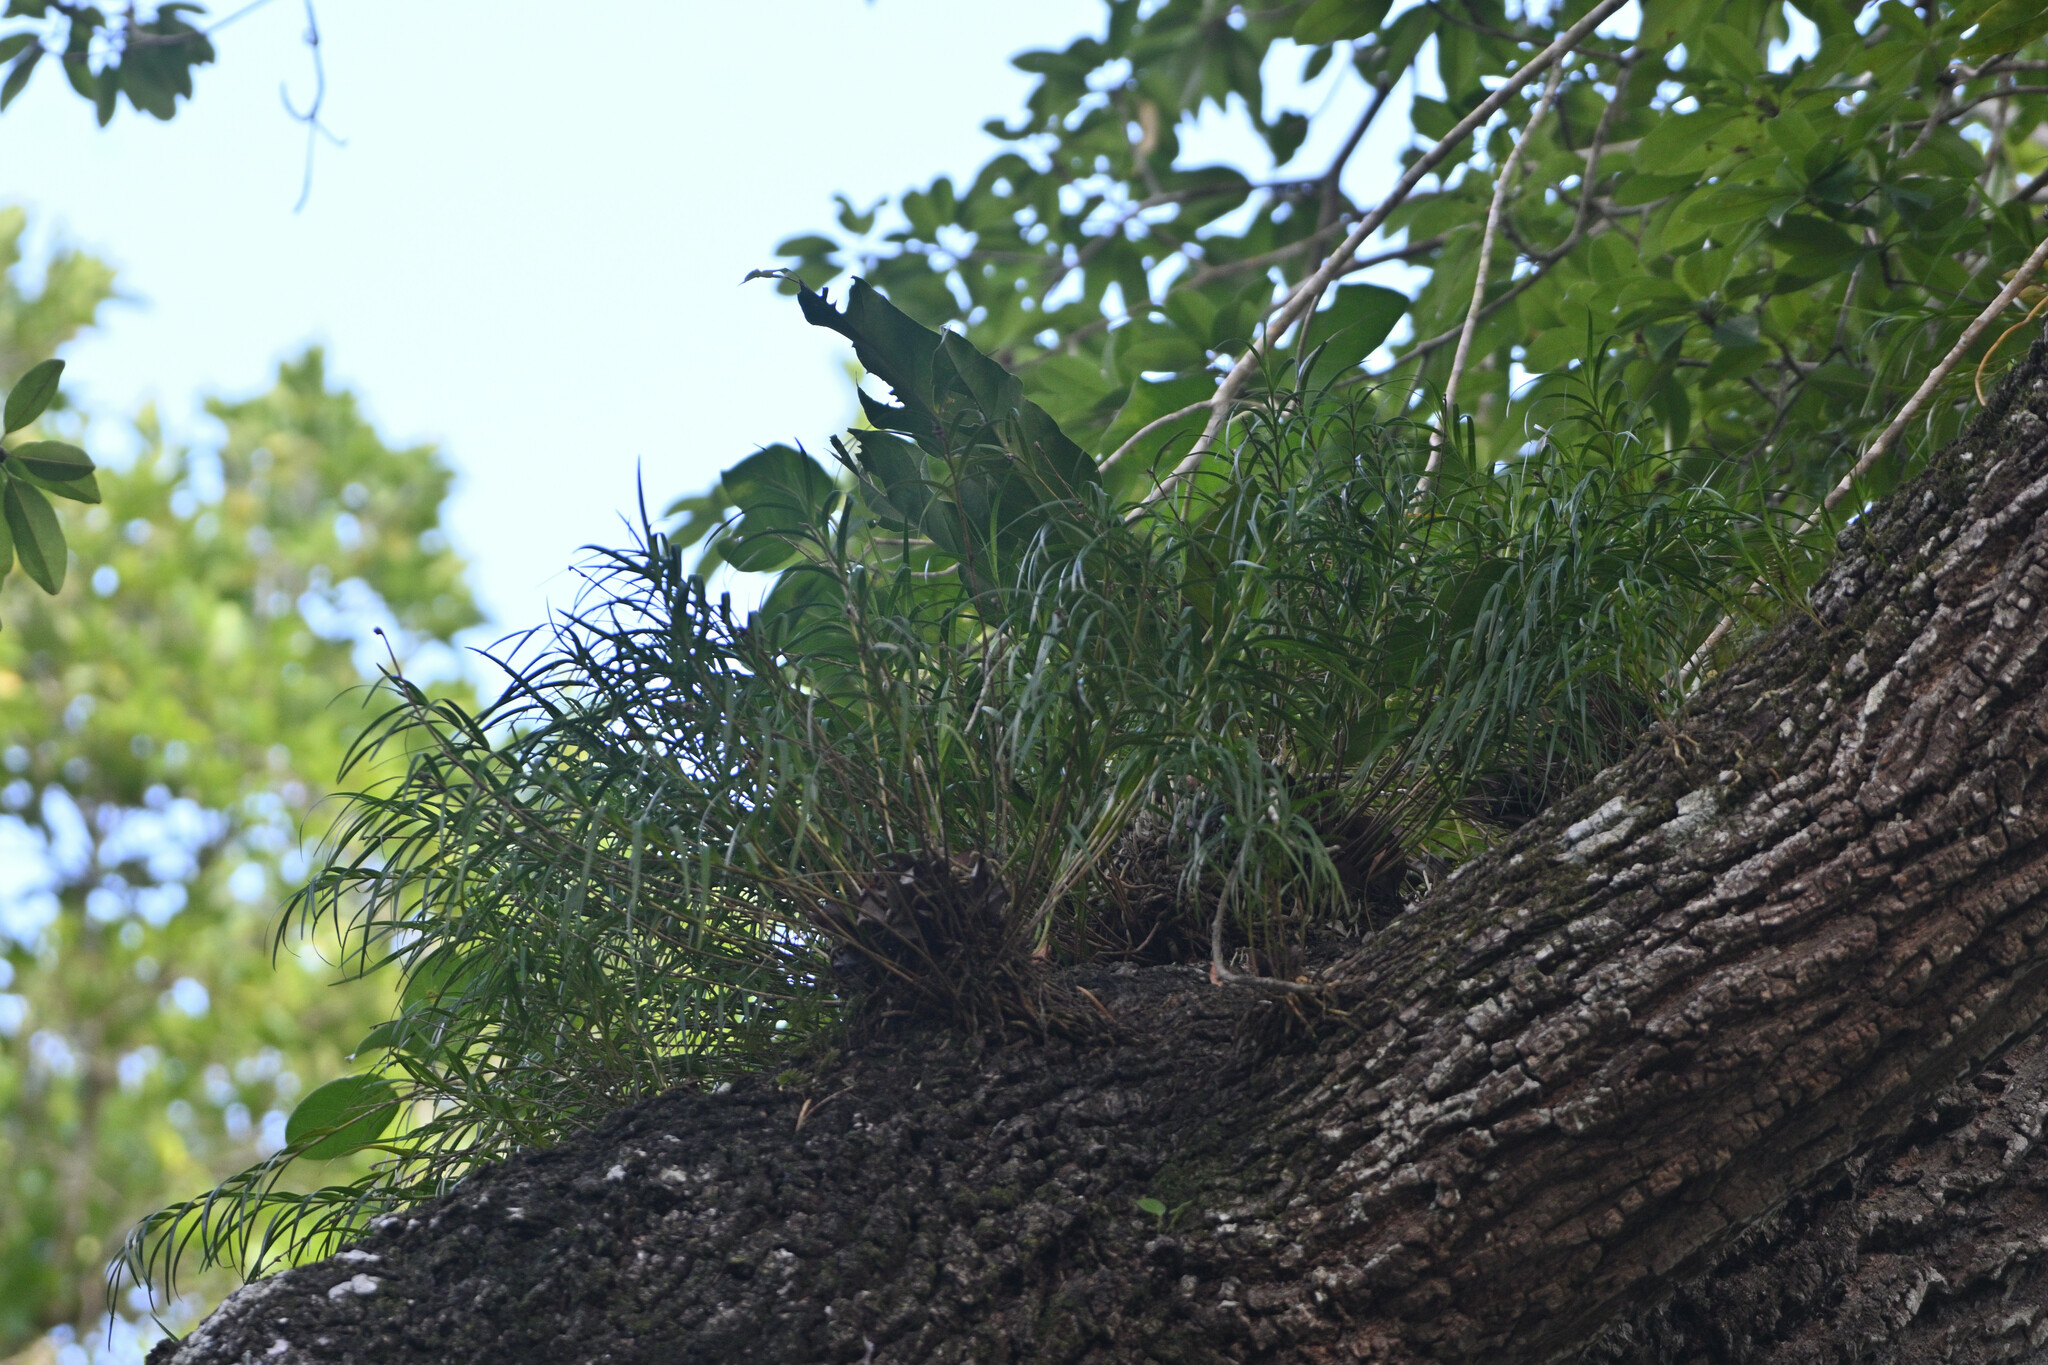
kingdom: Plantae
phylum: Tracheophyta
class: Liliopsida
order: Asparagales
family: Orchidaceae
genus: Nemaconia
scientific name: Nemaconia striata
